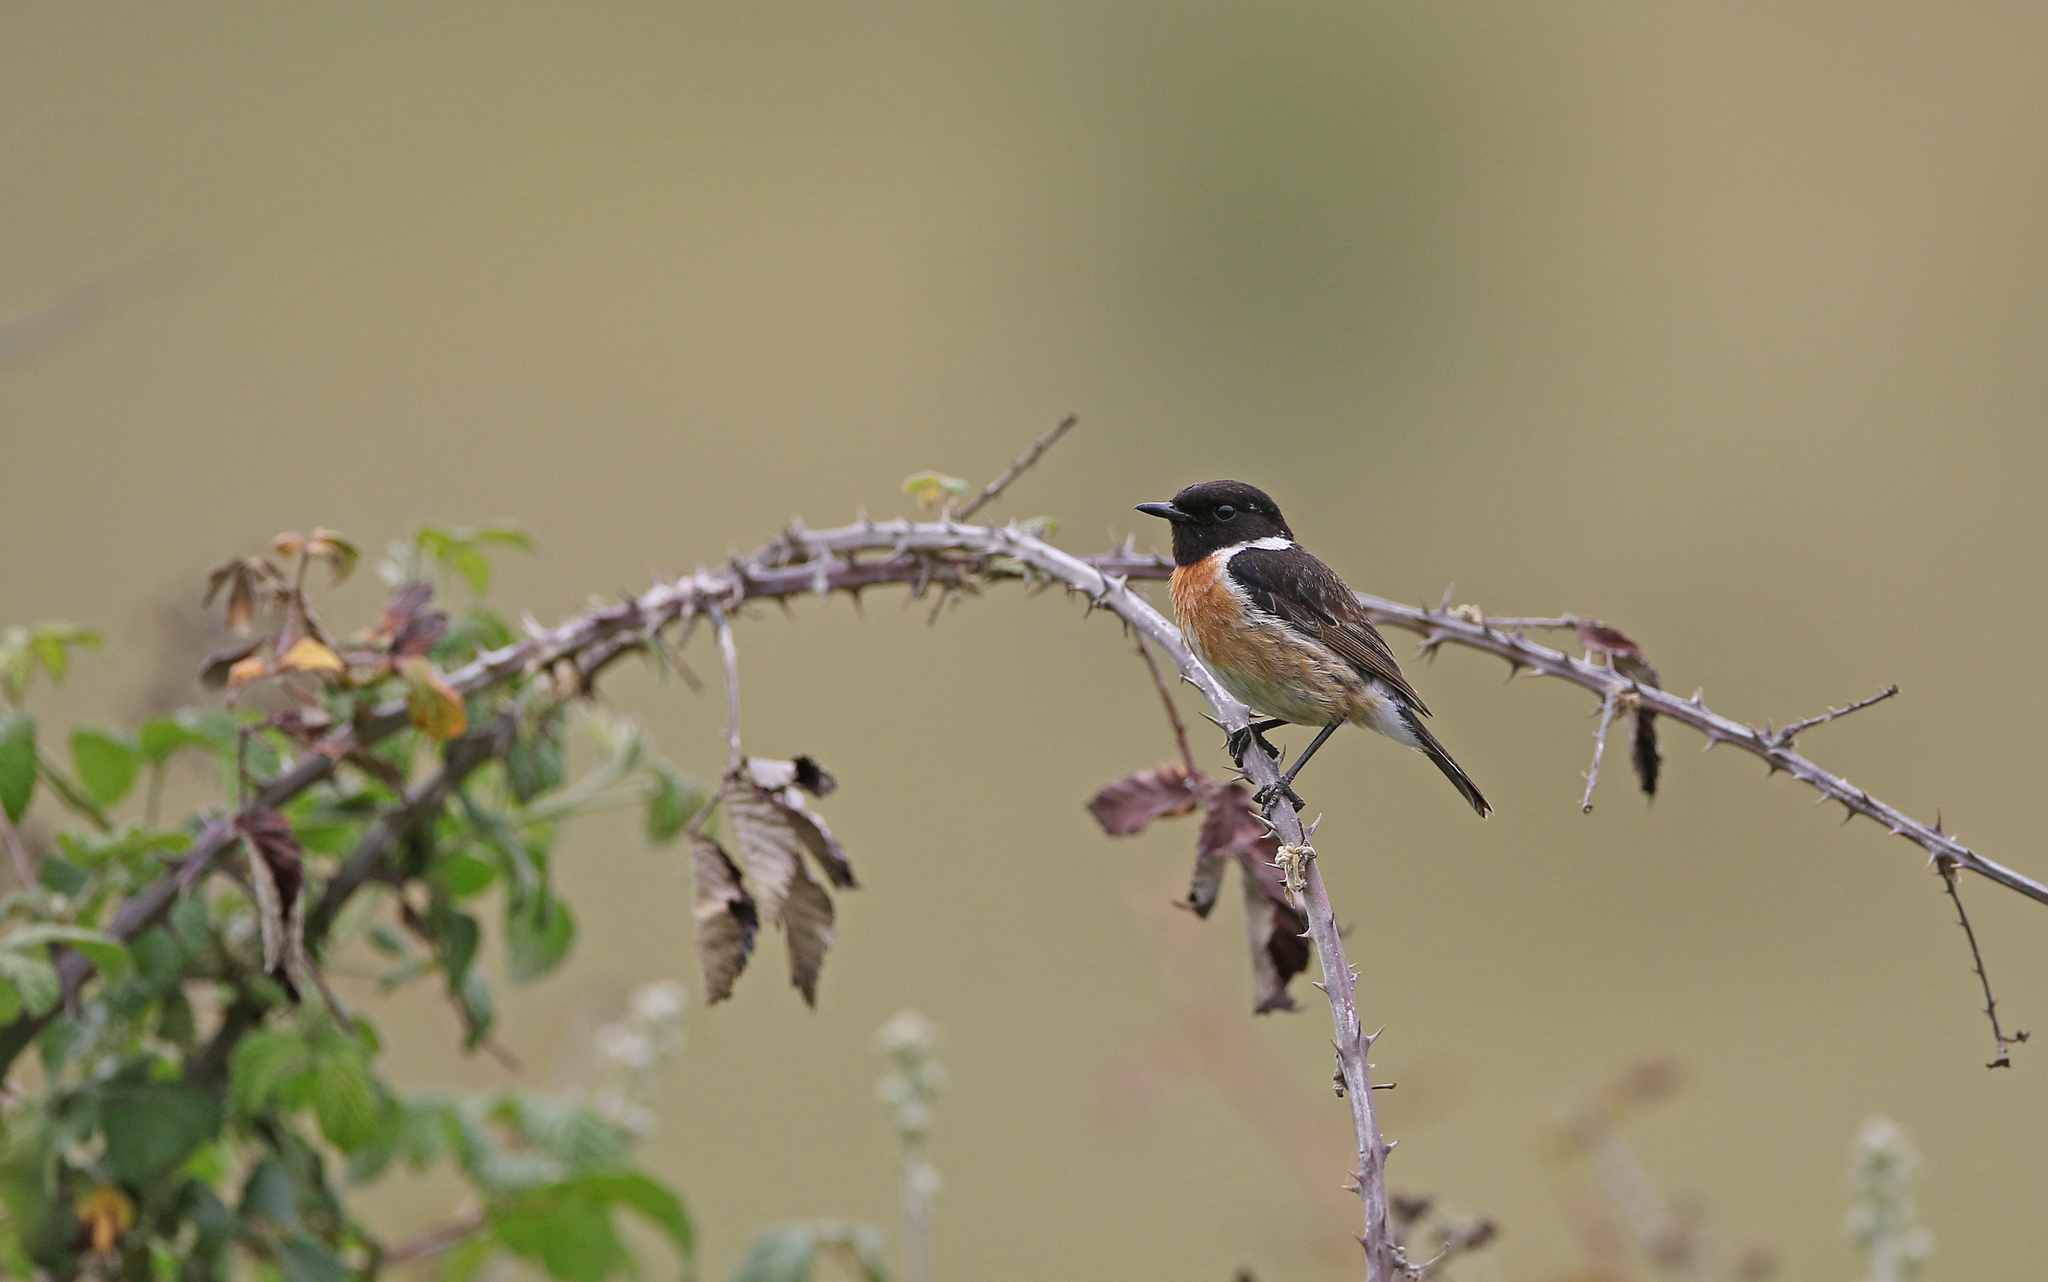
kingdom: Animalia
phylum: Chordata
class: Aves
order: Passeriformes
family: Muscicapidae
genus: Saxicola
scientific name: Saxicola rubicola
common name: European stonechat
